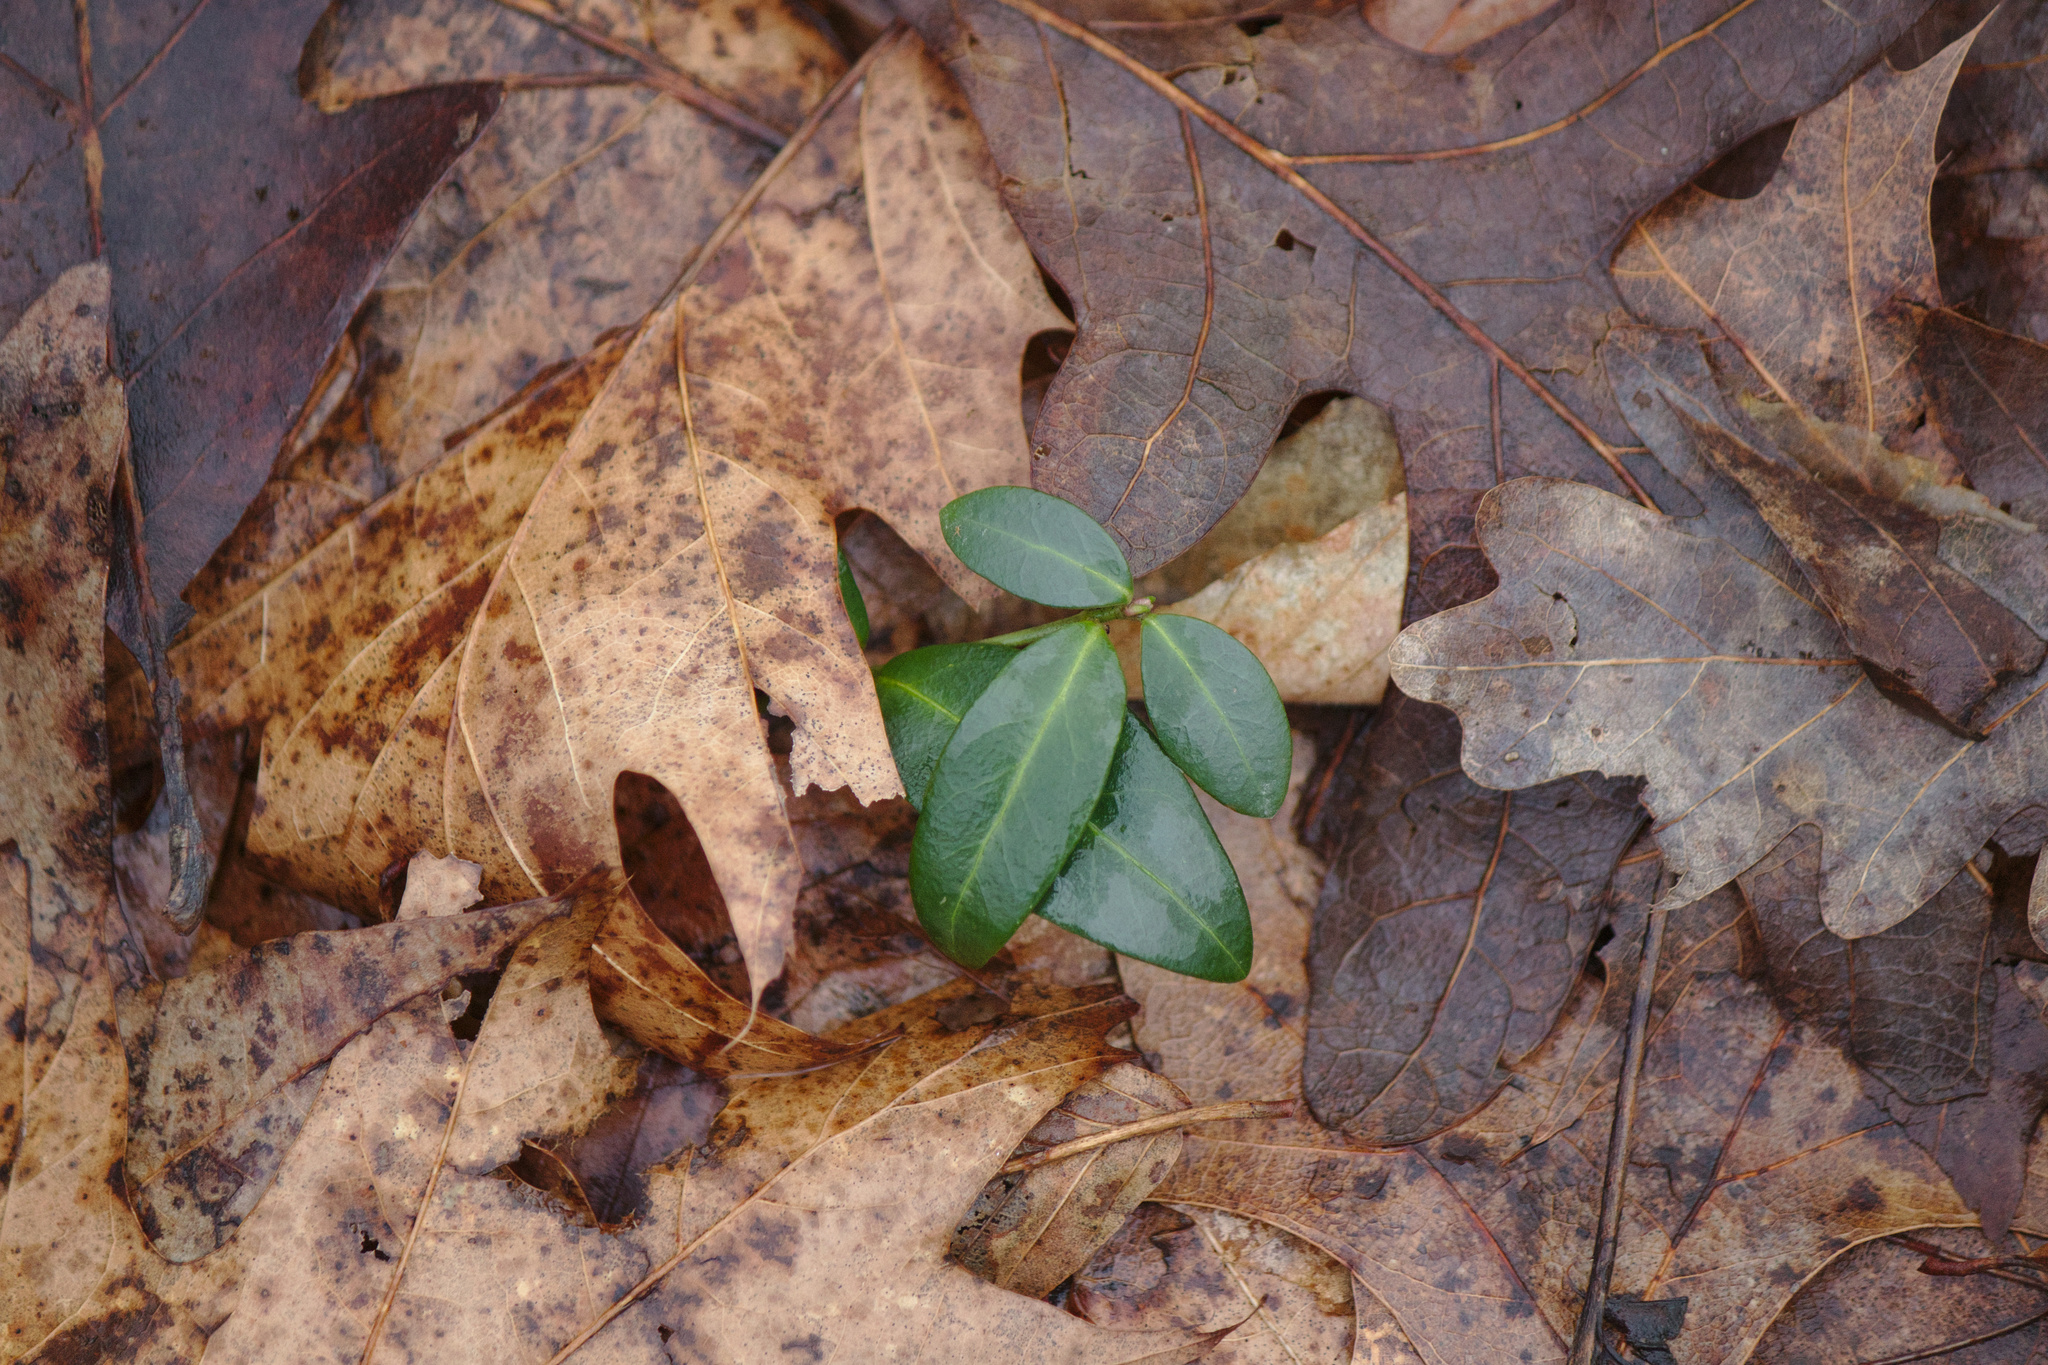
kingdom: Plantae
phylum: Tracheophyta
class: Magnoliopsida
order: Gentianales
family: Apocynaceae
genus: Vinca
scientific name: Vinca minor
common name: Lesser periwinkle
